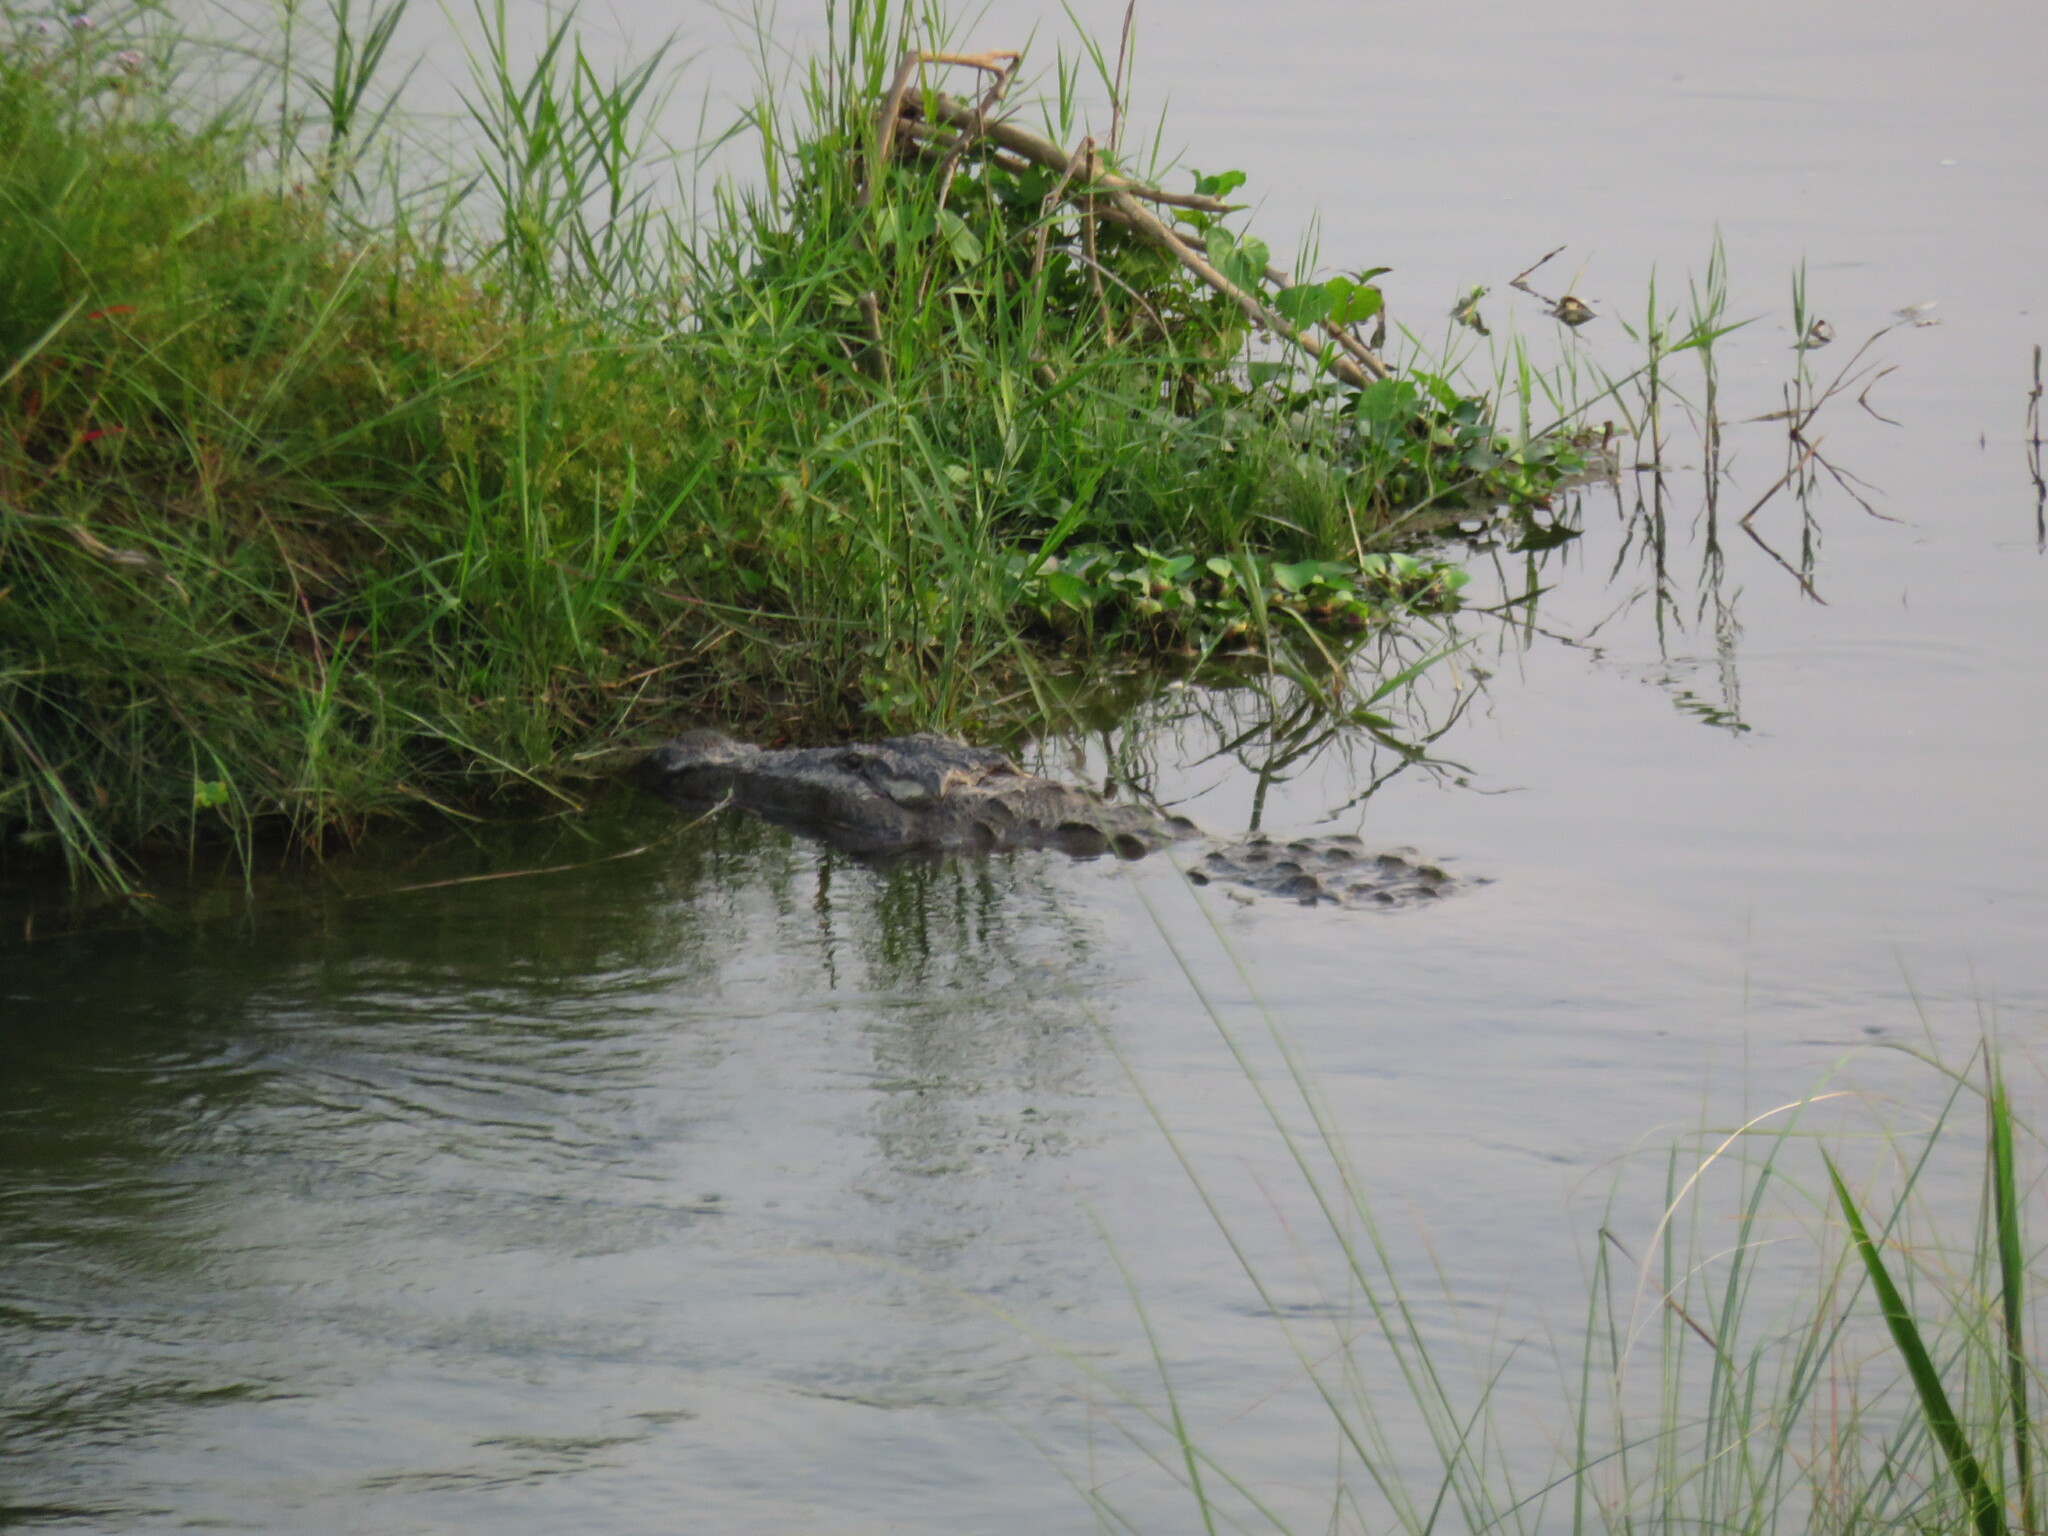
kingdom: Animalia
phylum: Chordata
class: Crocodylia
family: Crocodylidae
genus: Crocodylus
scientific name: Crocodylus palustris
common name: Mugger crocodile
